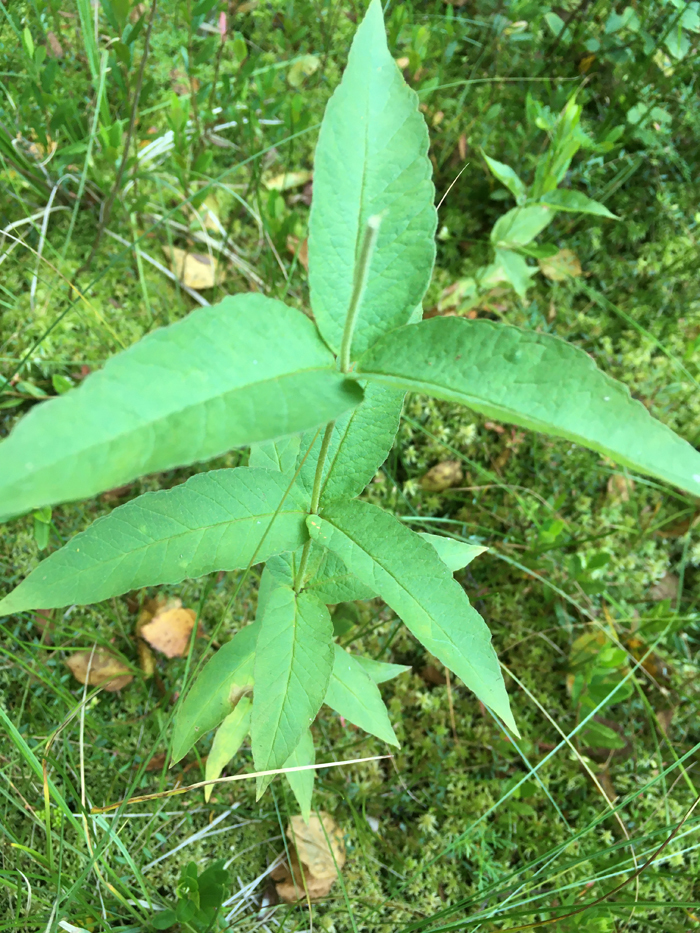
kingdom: Plantae
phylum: Tracheophyta
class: Magnoliopsida
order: Ericales
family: Primulaceae
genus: Lysimachia
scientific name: Lysimachia vulgaris
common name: Yellow loosestrife
